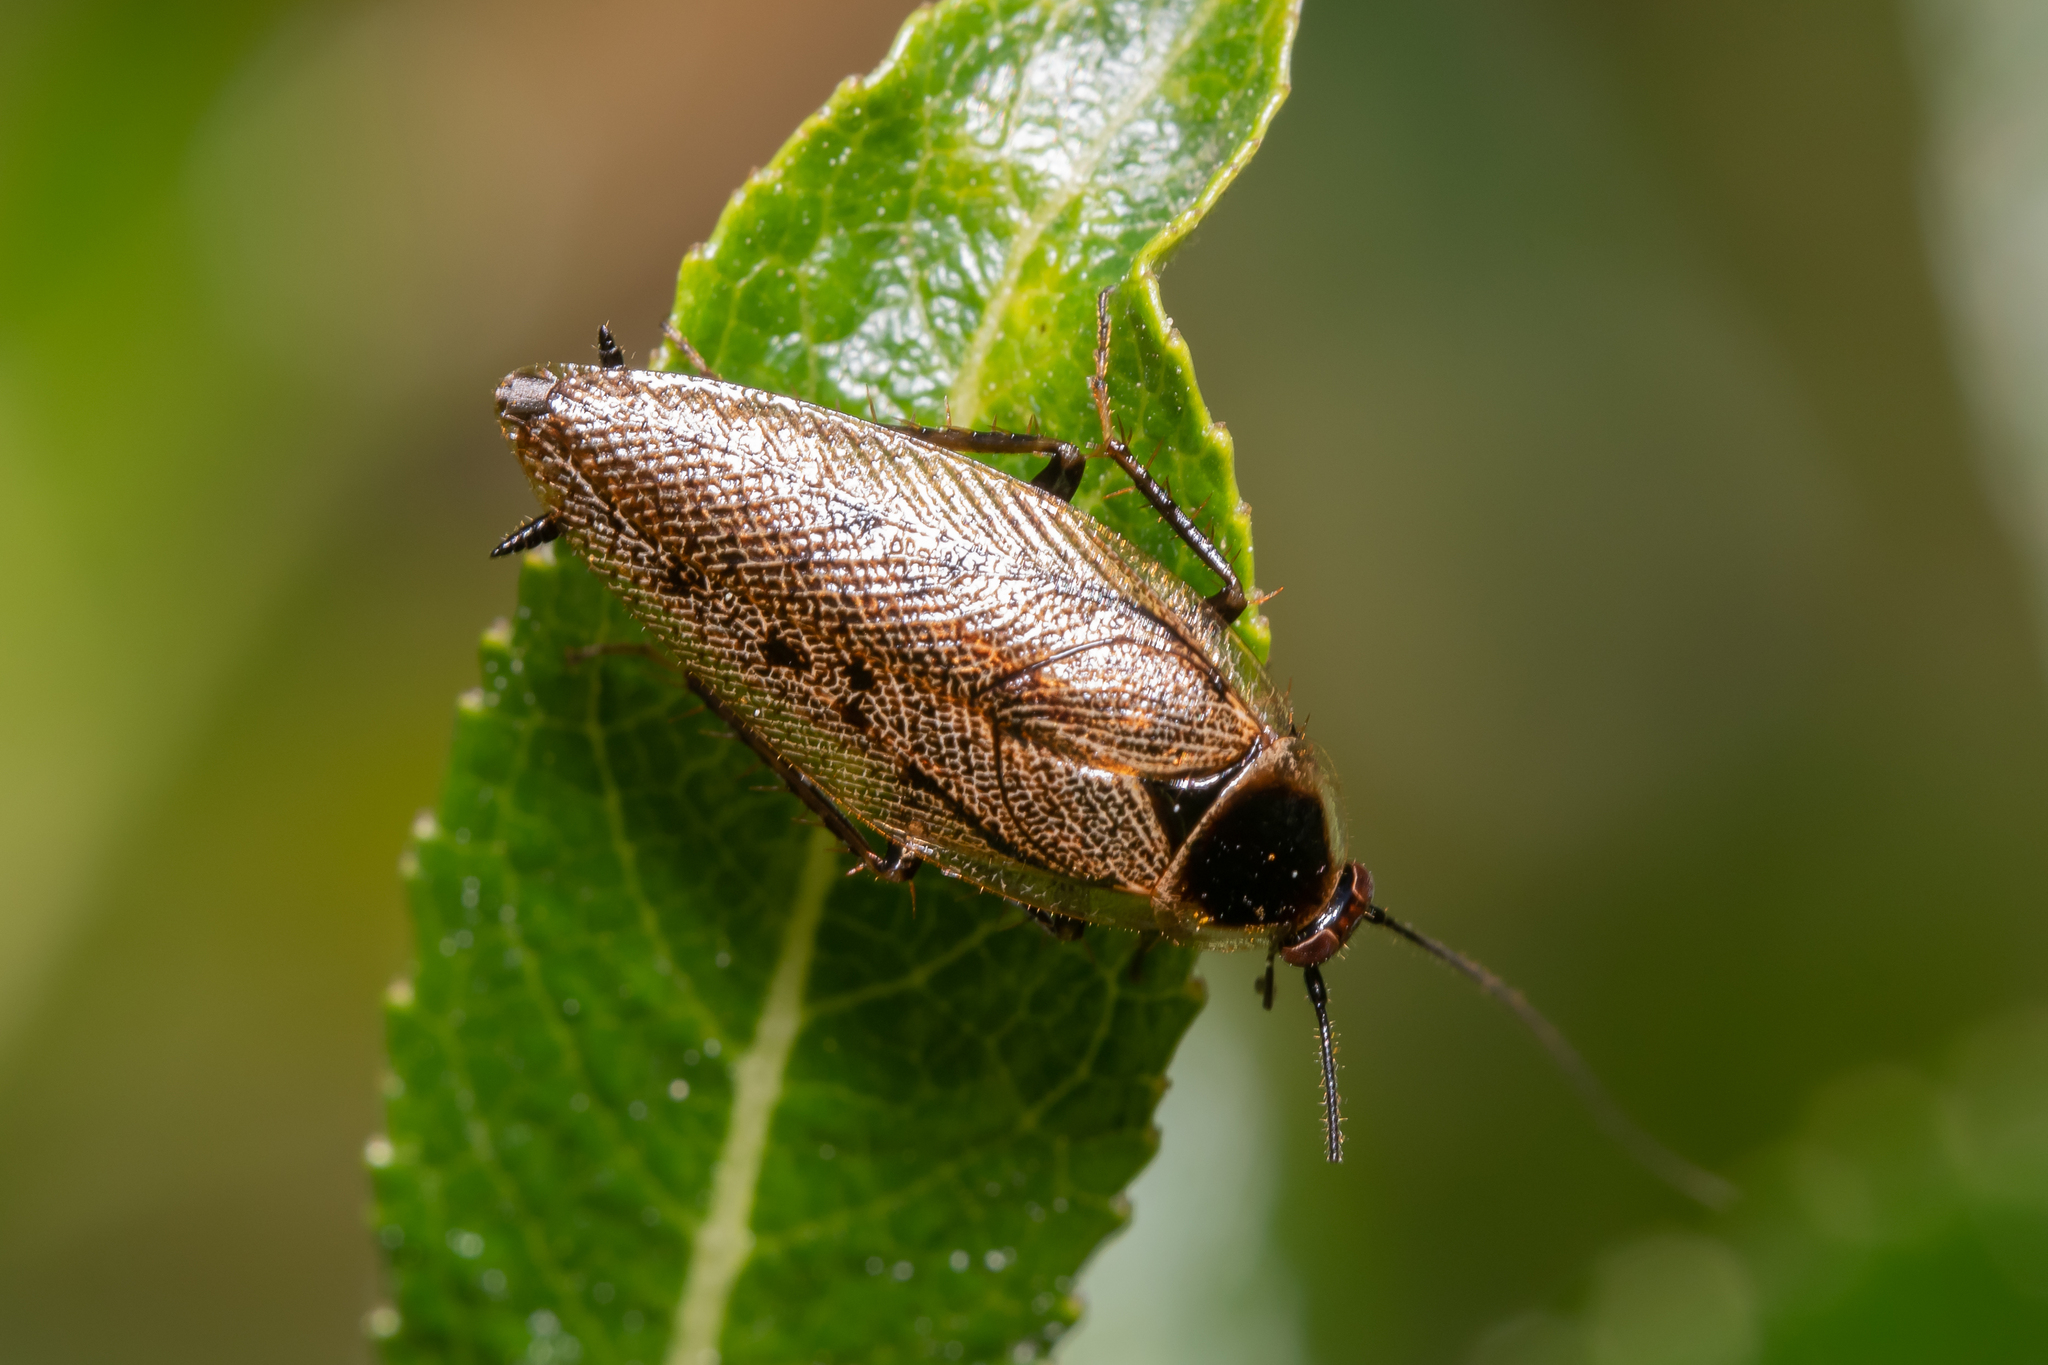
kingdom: Animalia
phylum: Arthropoda
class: Insecta
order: Blattodea
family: Ectobiidae
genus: Ectobius
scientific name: Ectobius lapponicus
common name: Dusky cockroach
